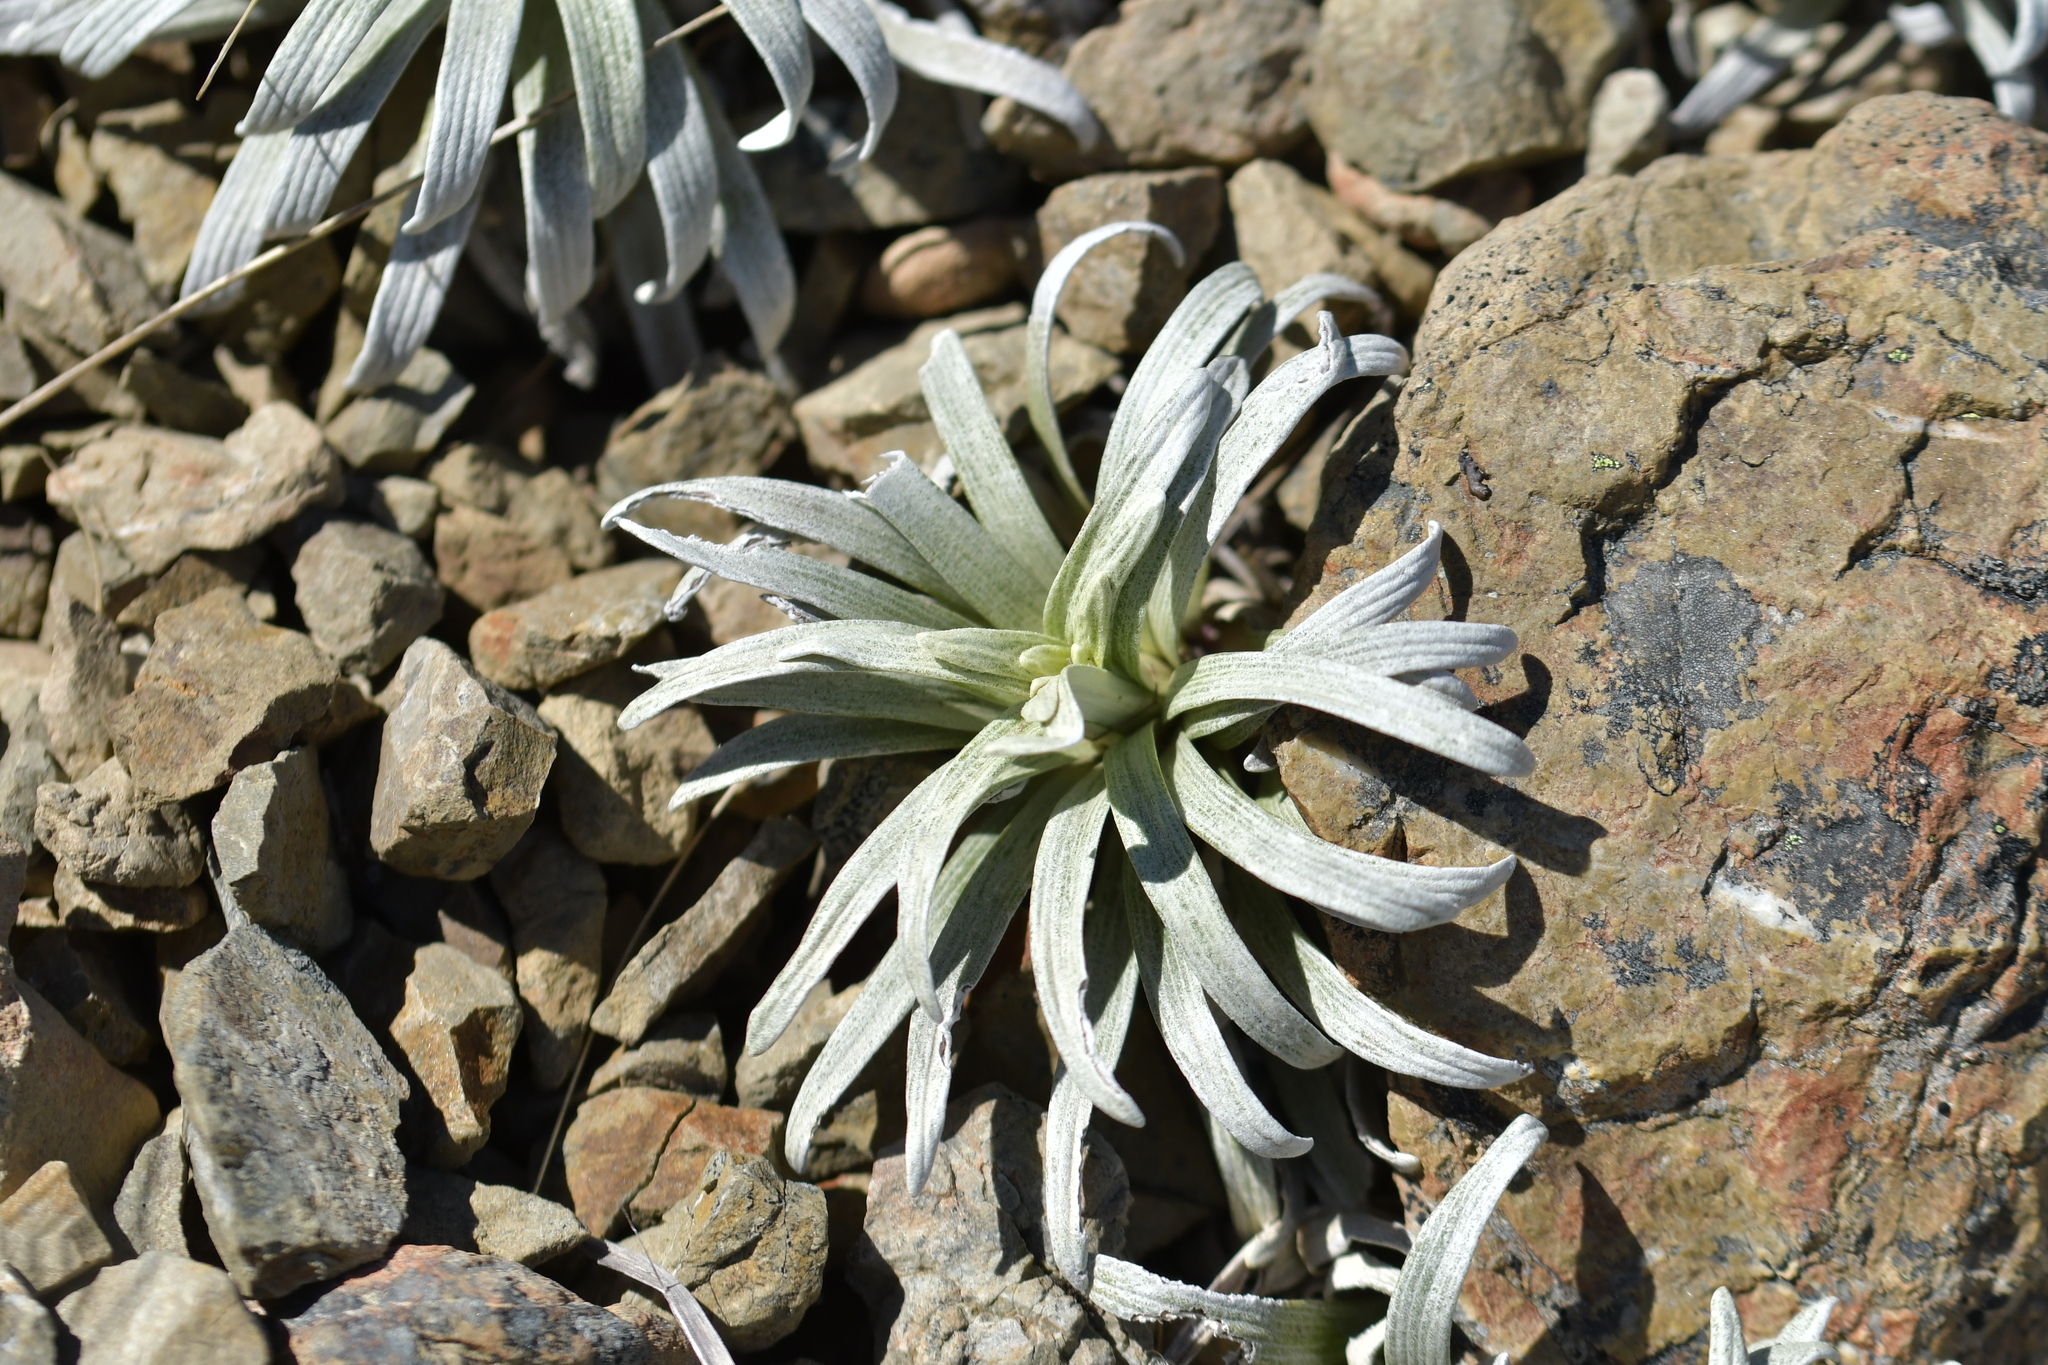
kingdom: Plantae
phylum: Tracheophyta
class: Magnoliopsida
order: Asterales
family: Asteraceae
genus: Celmisia
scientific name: Celmisia viscosa
